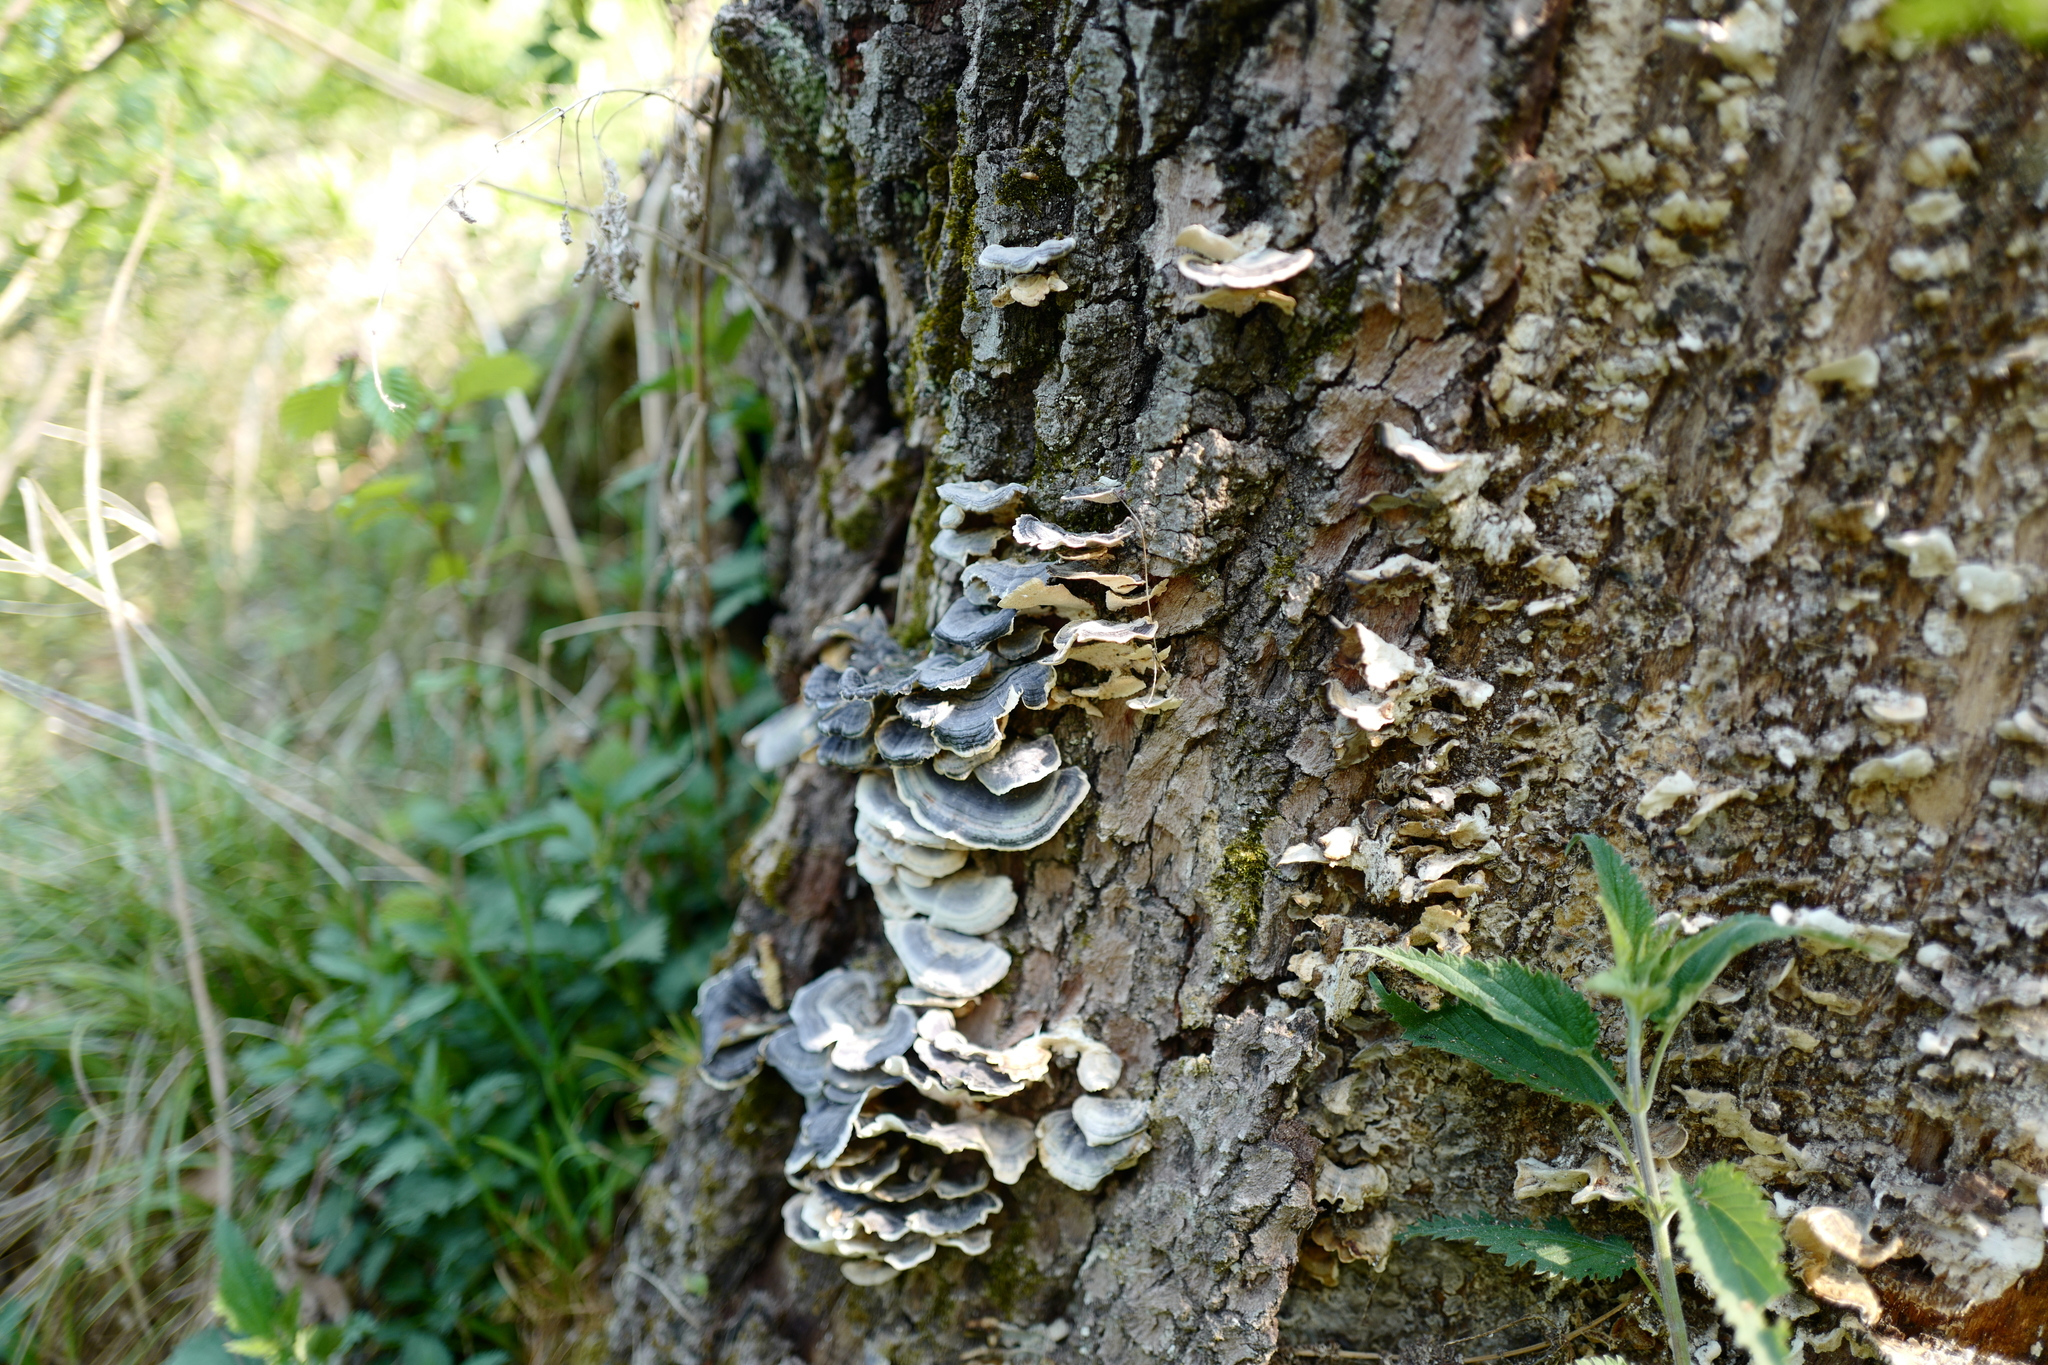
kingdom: Fungi
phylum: Basidiomycota
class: Agaricomycetes
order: Polyporales
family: Polyporaceae
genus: Trametes
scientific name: Trametes versicolor
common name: Turkeytail
